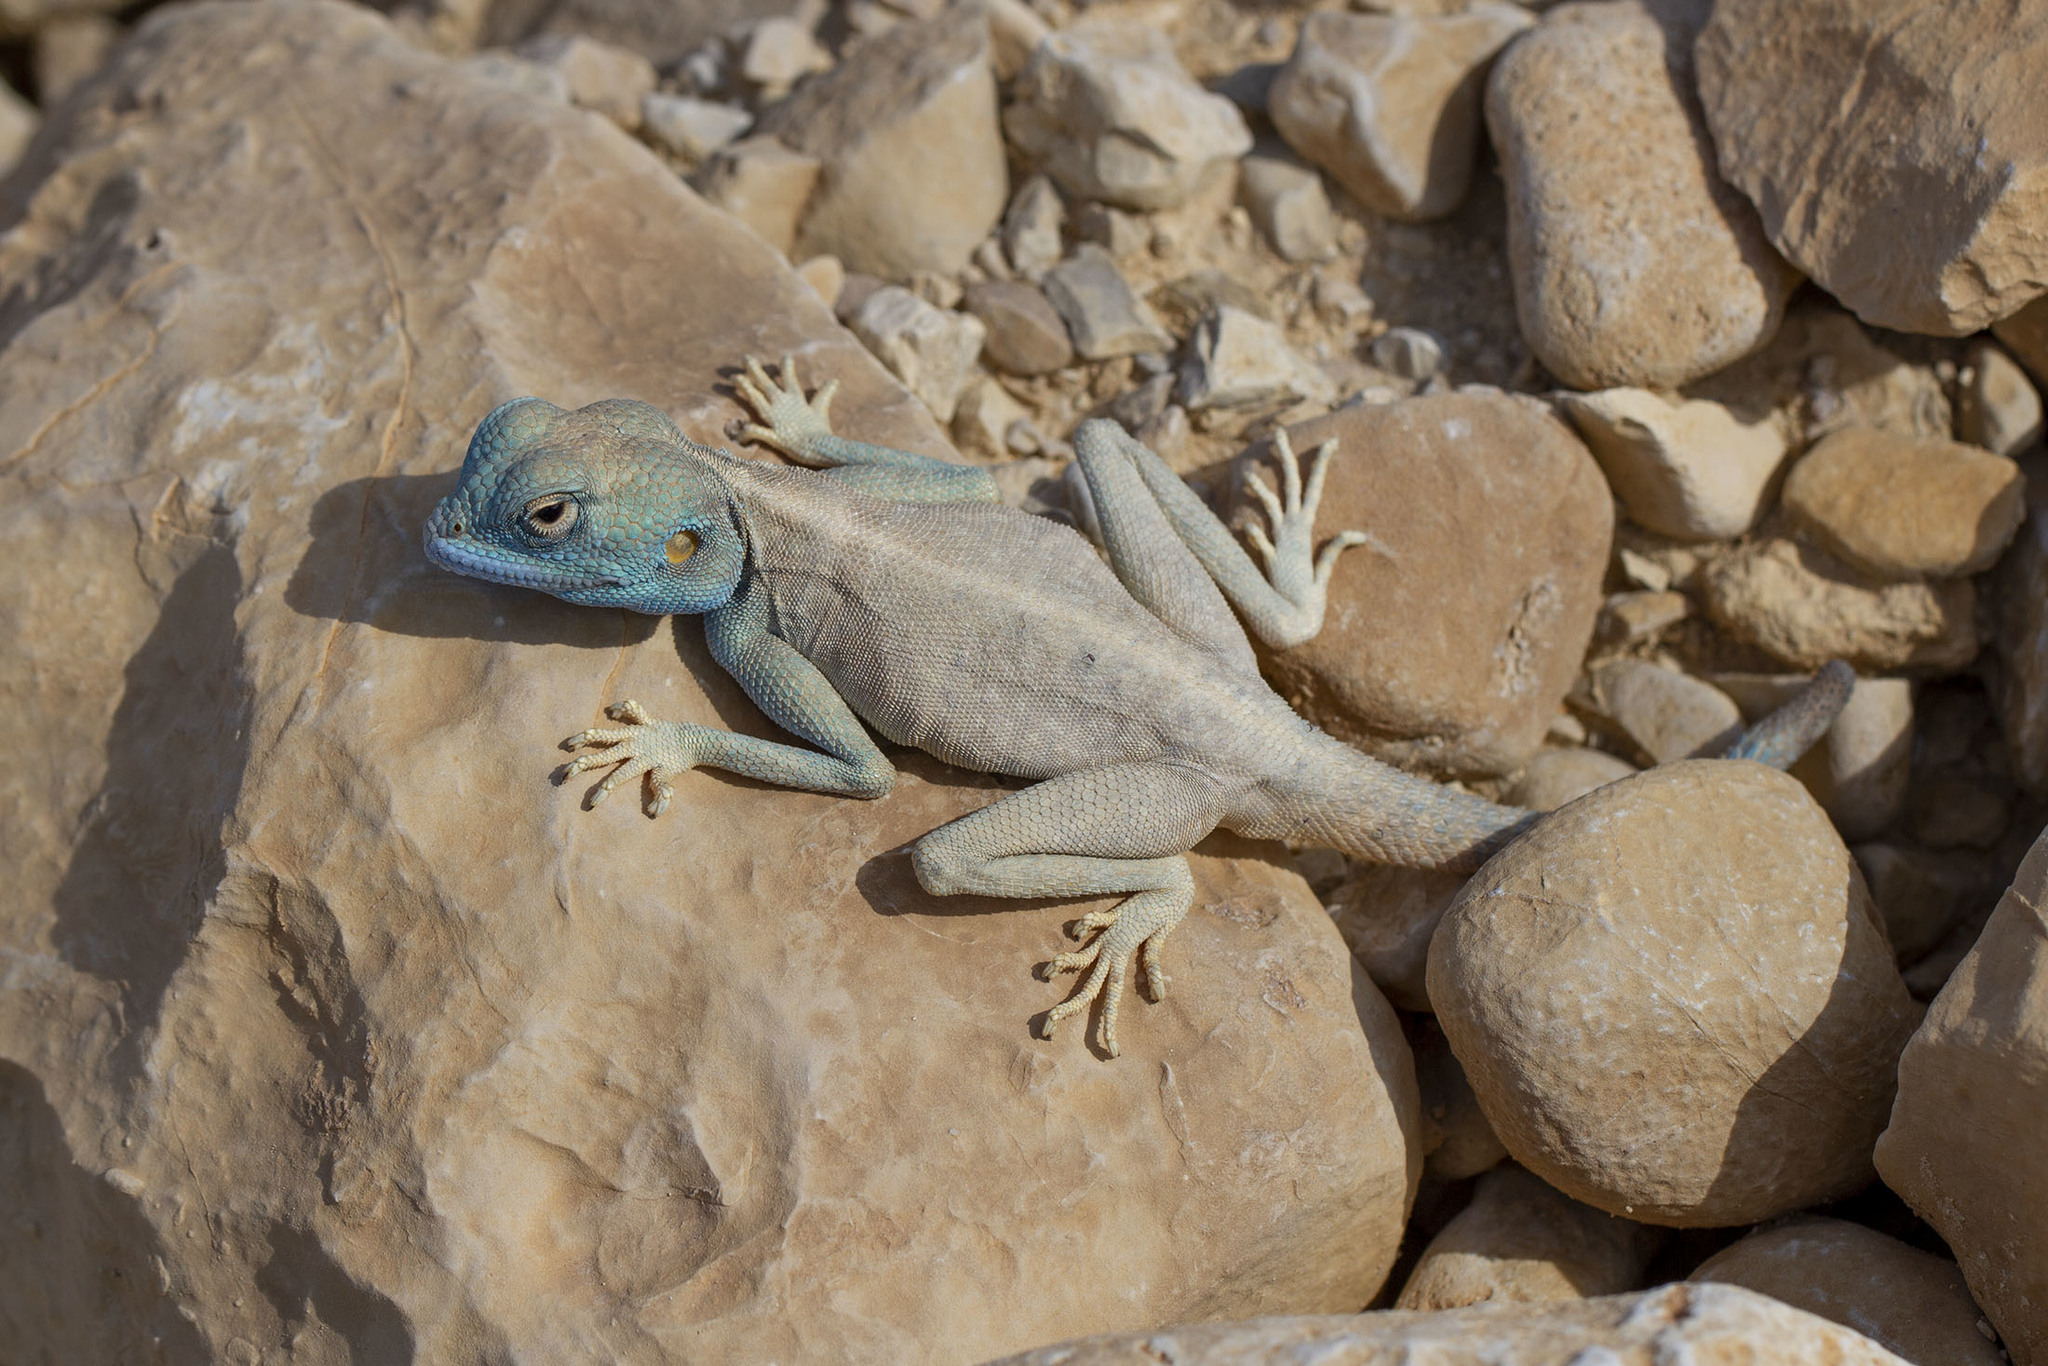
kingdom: Animalia
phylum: Chordata
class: Squamata
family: Agamidae
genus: Pseudotrapelus
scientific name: Pseudotrapelus aqabensis
